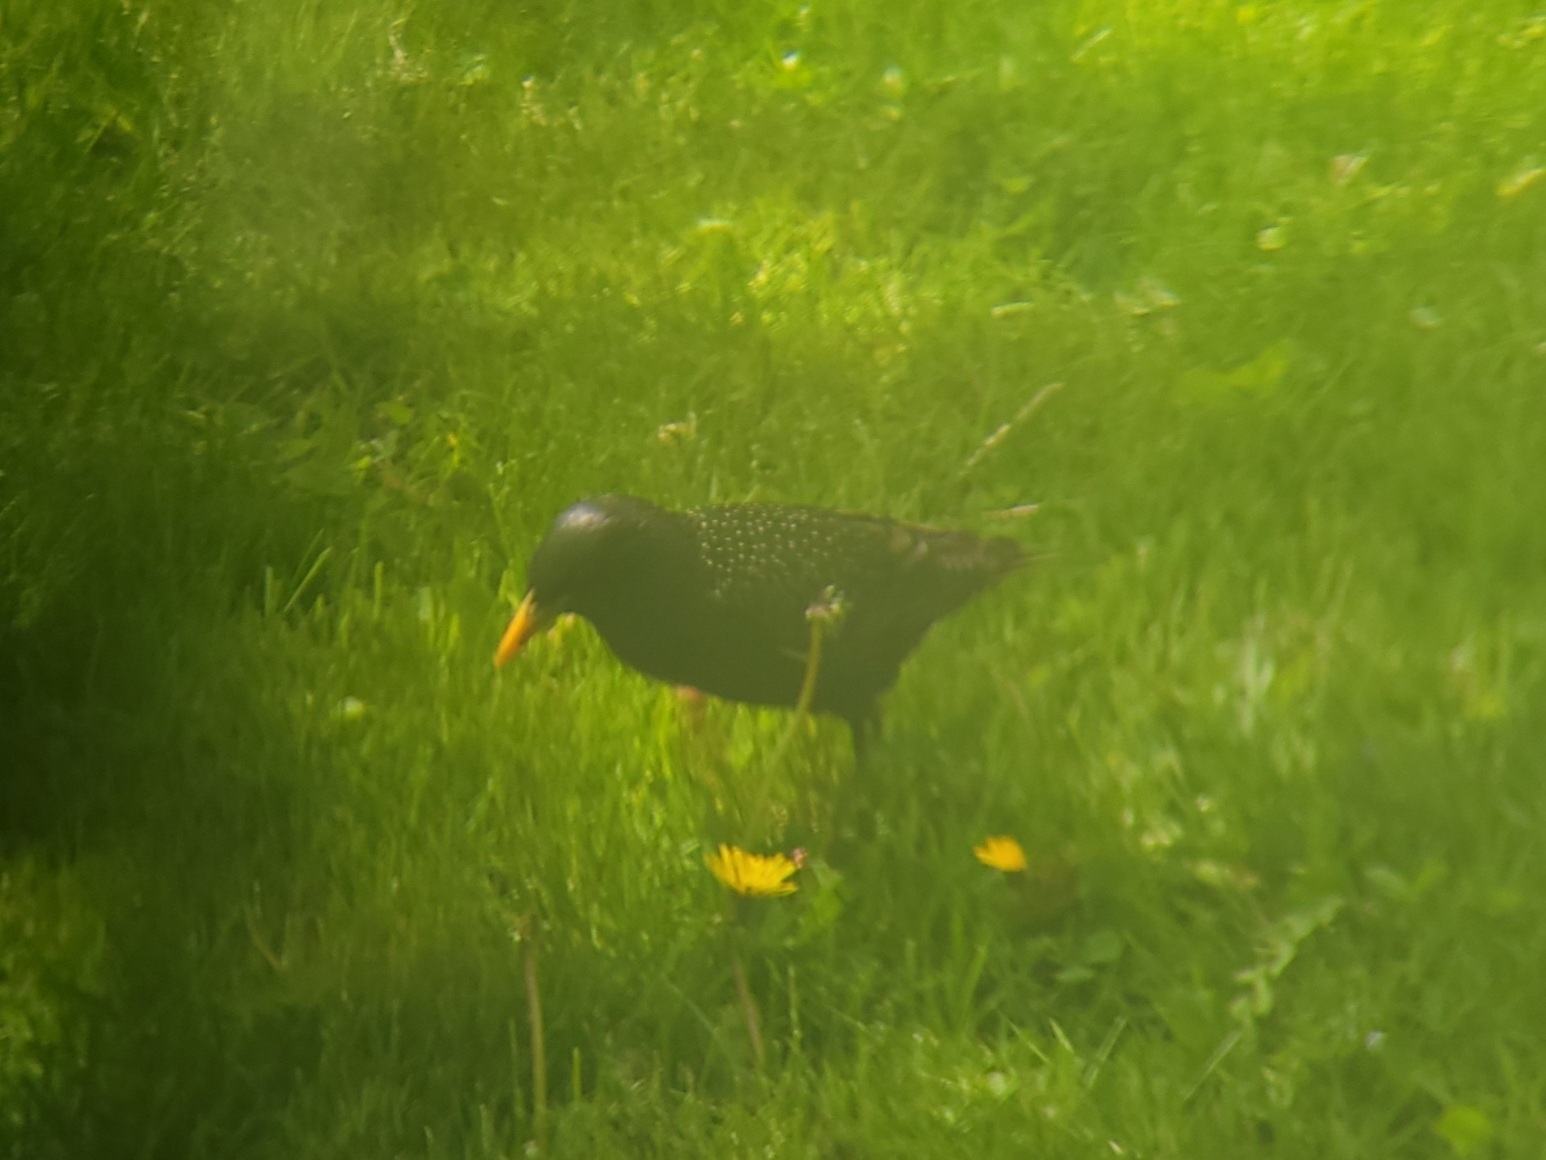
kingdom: Animalia
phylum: Chordata
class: Aves
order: Passeriformes
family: Sturnidae
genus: Sturnus
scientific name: Sturnus vulgaris
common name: Common starling
